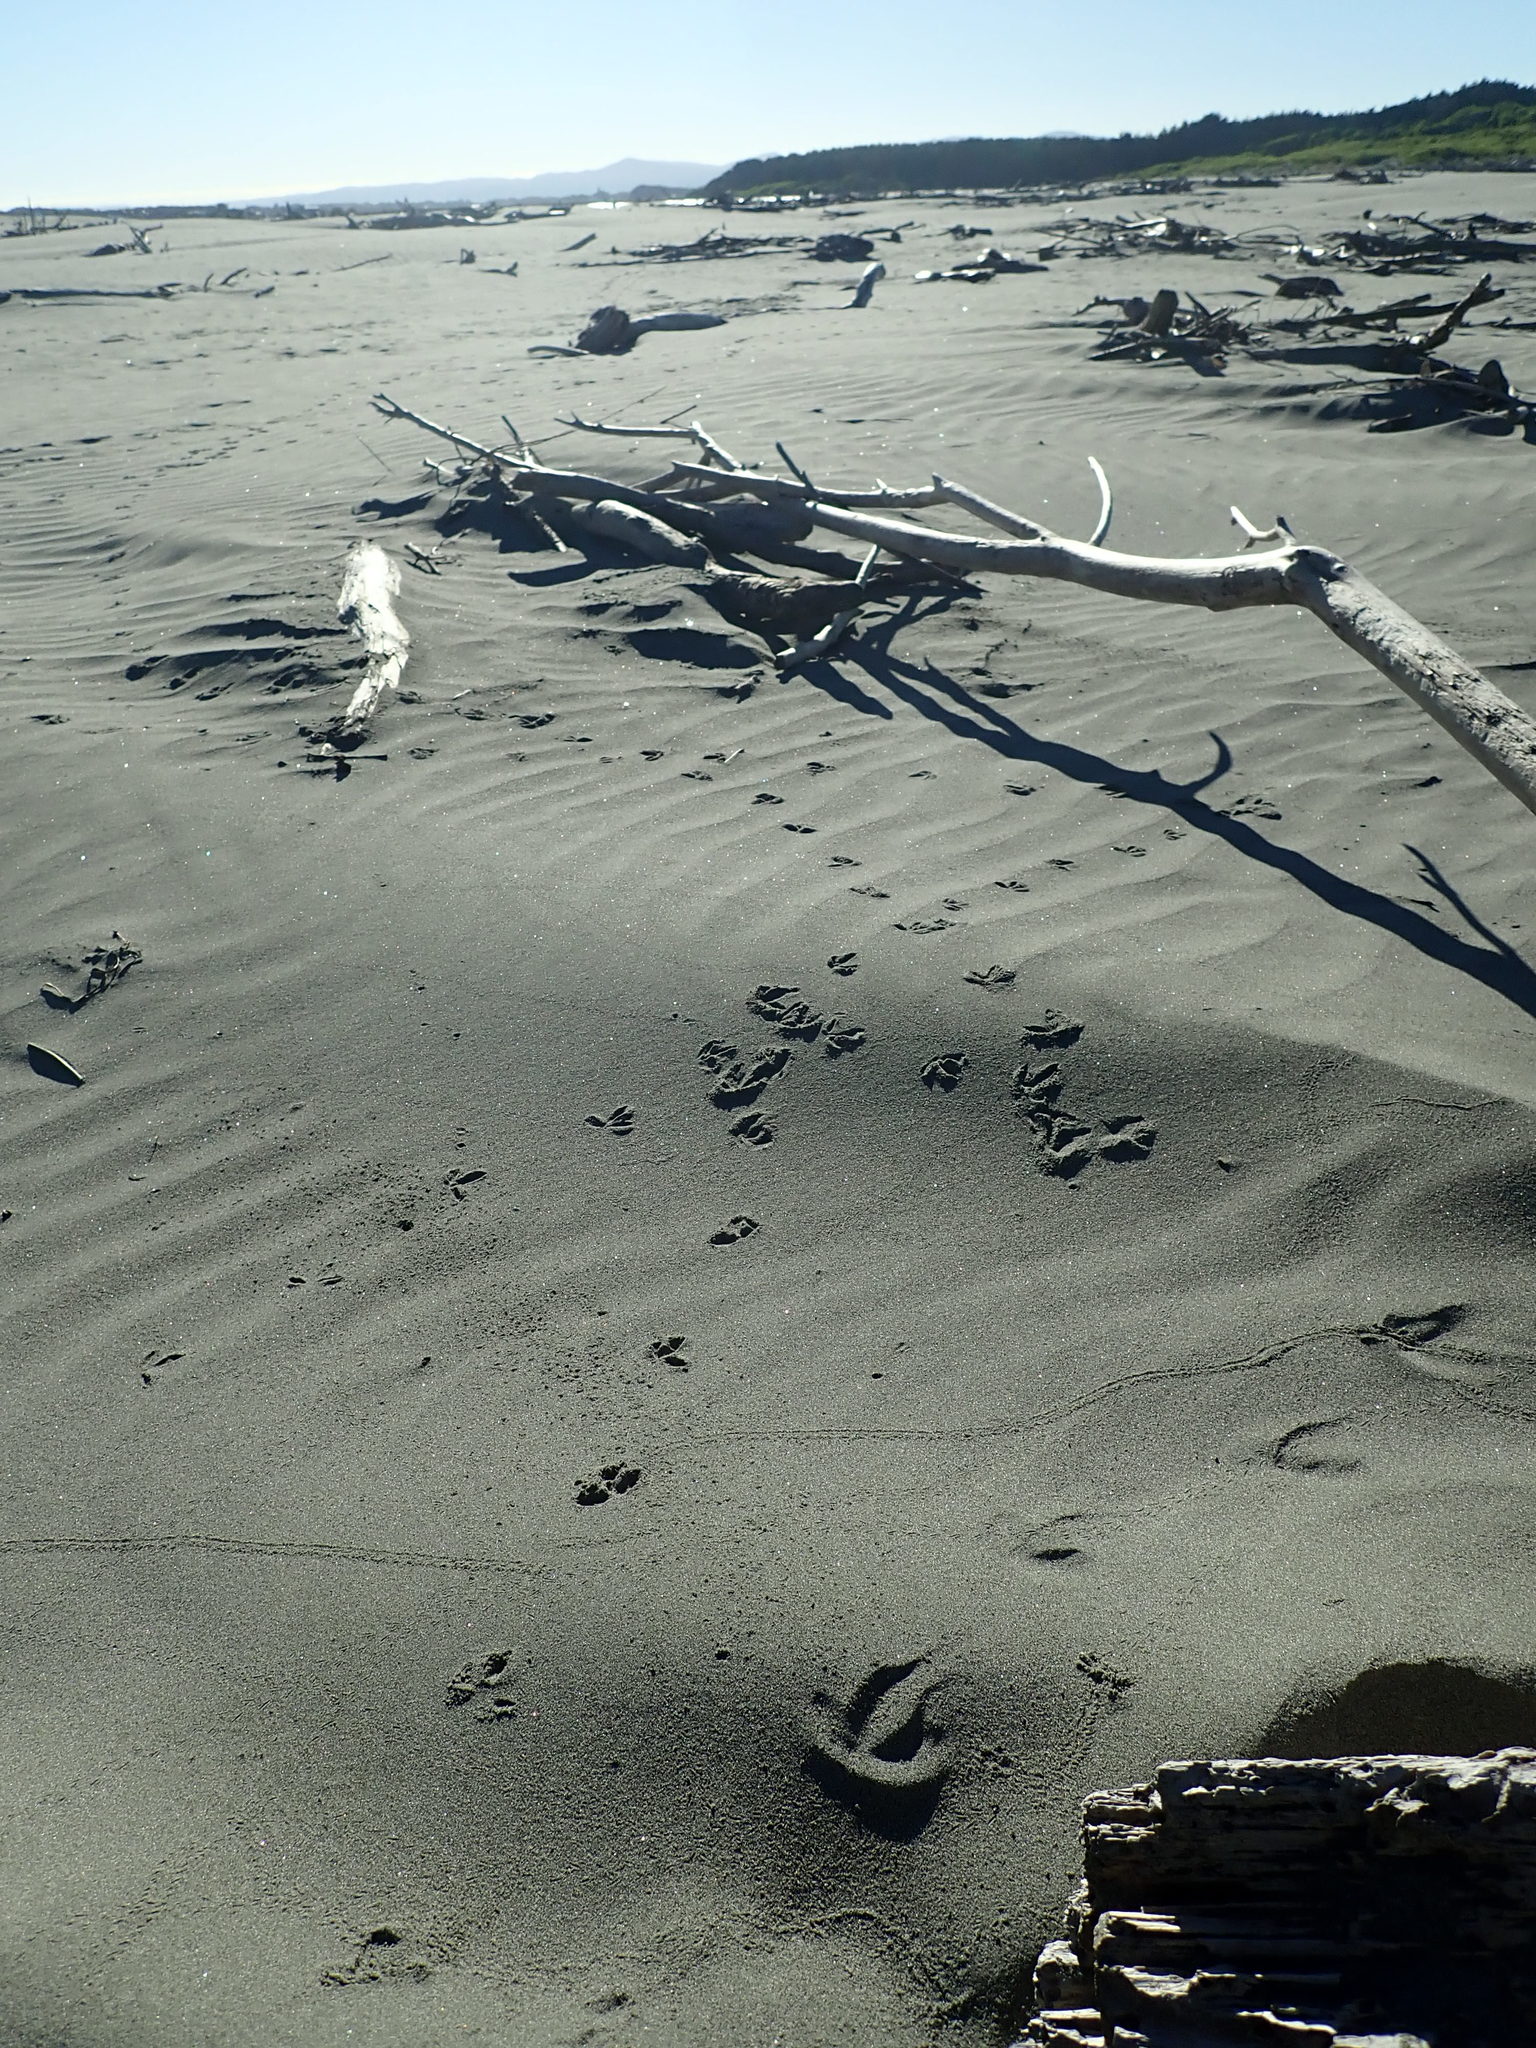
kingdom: Animalia
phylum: Chordata
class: Aves
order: Charadriiformes
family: Charadriidae
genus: Anarhynchus
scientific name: Anarhynchus
